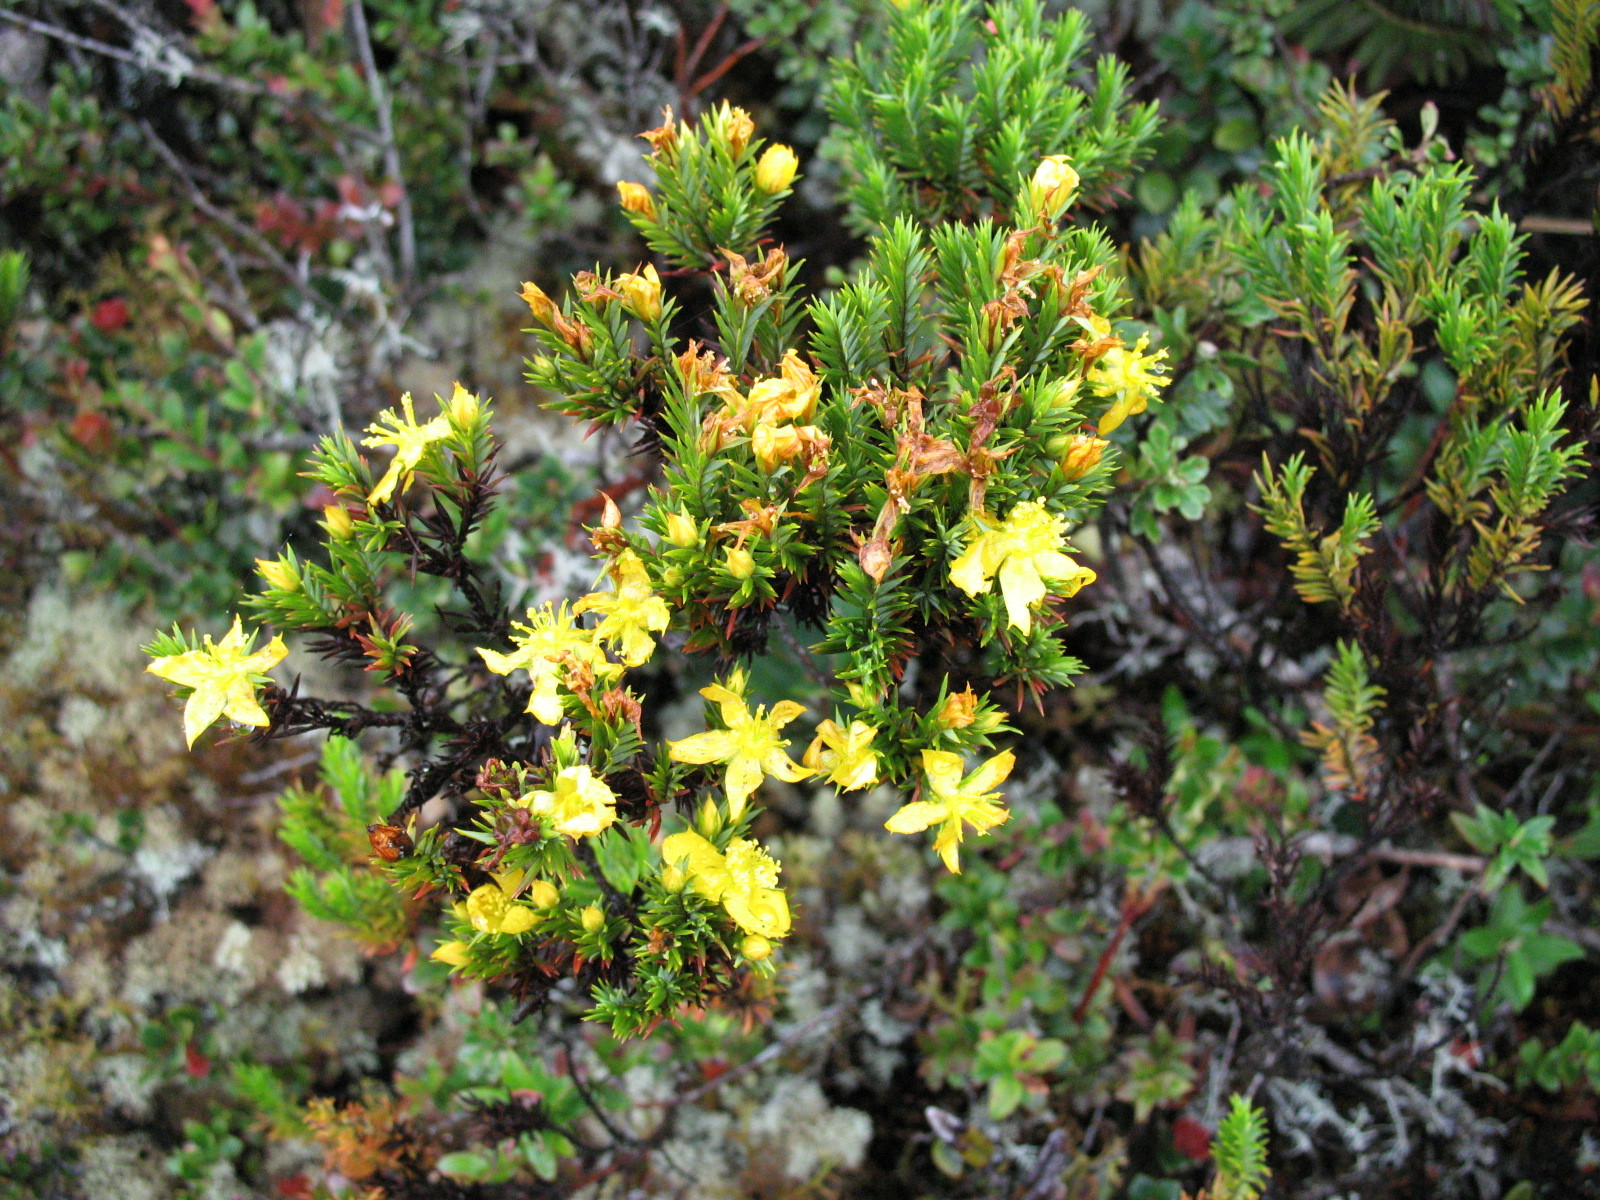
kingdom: Plantae
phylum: Tracheophyta
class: Magnoliopsida
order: Malpighiales
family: Hypericaceae
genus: Hypericum
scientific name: Hypericum aciculare
